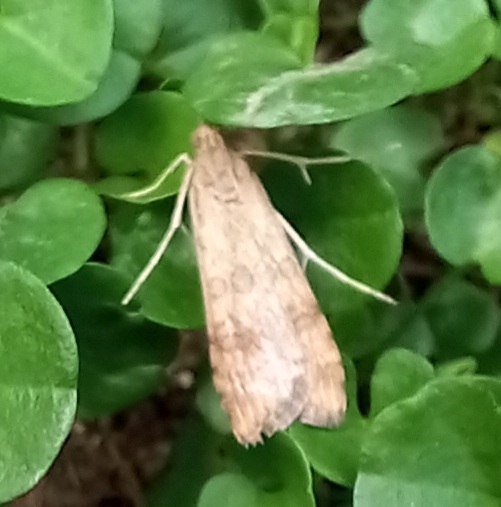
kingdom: Animalia
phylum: Arthropoda
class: Insecta
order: Lepidoptera
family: Crambidae
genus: Nomophila
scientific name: Nomophila noctuella
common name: Rush veneer
